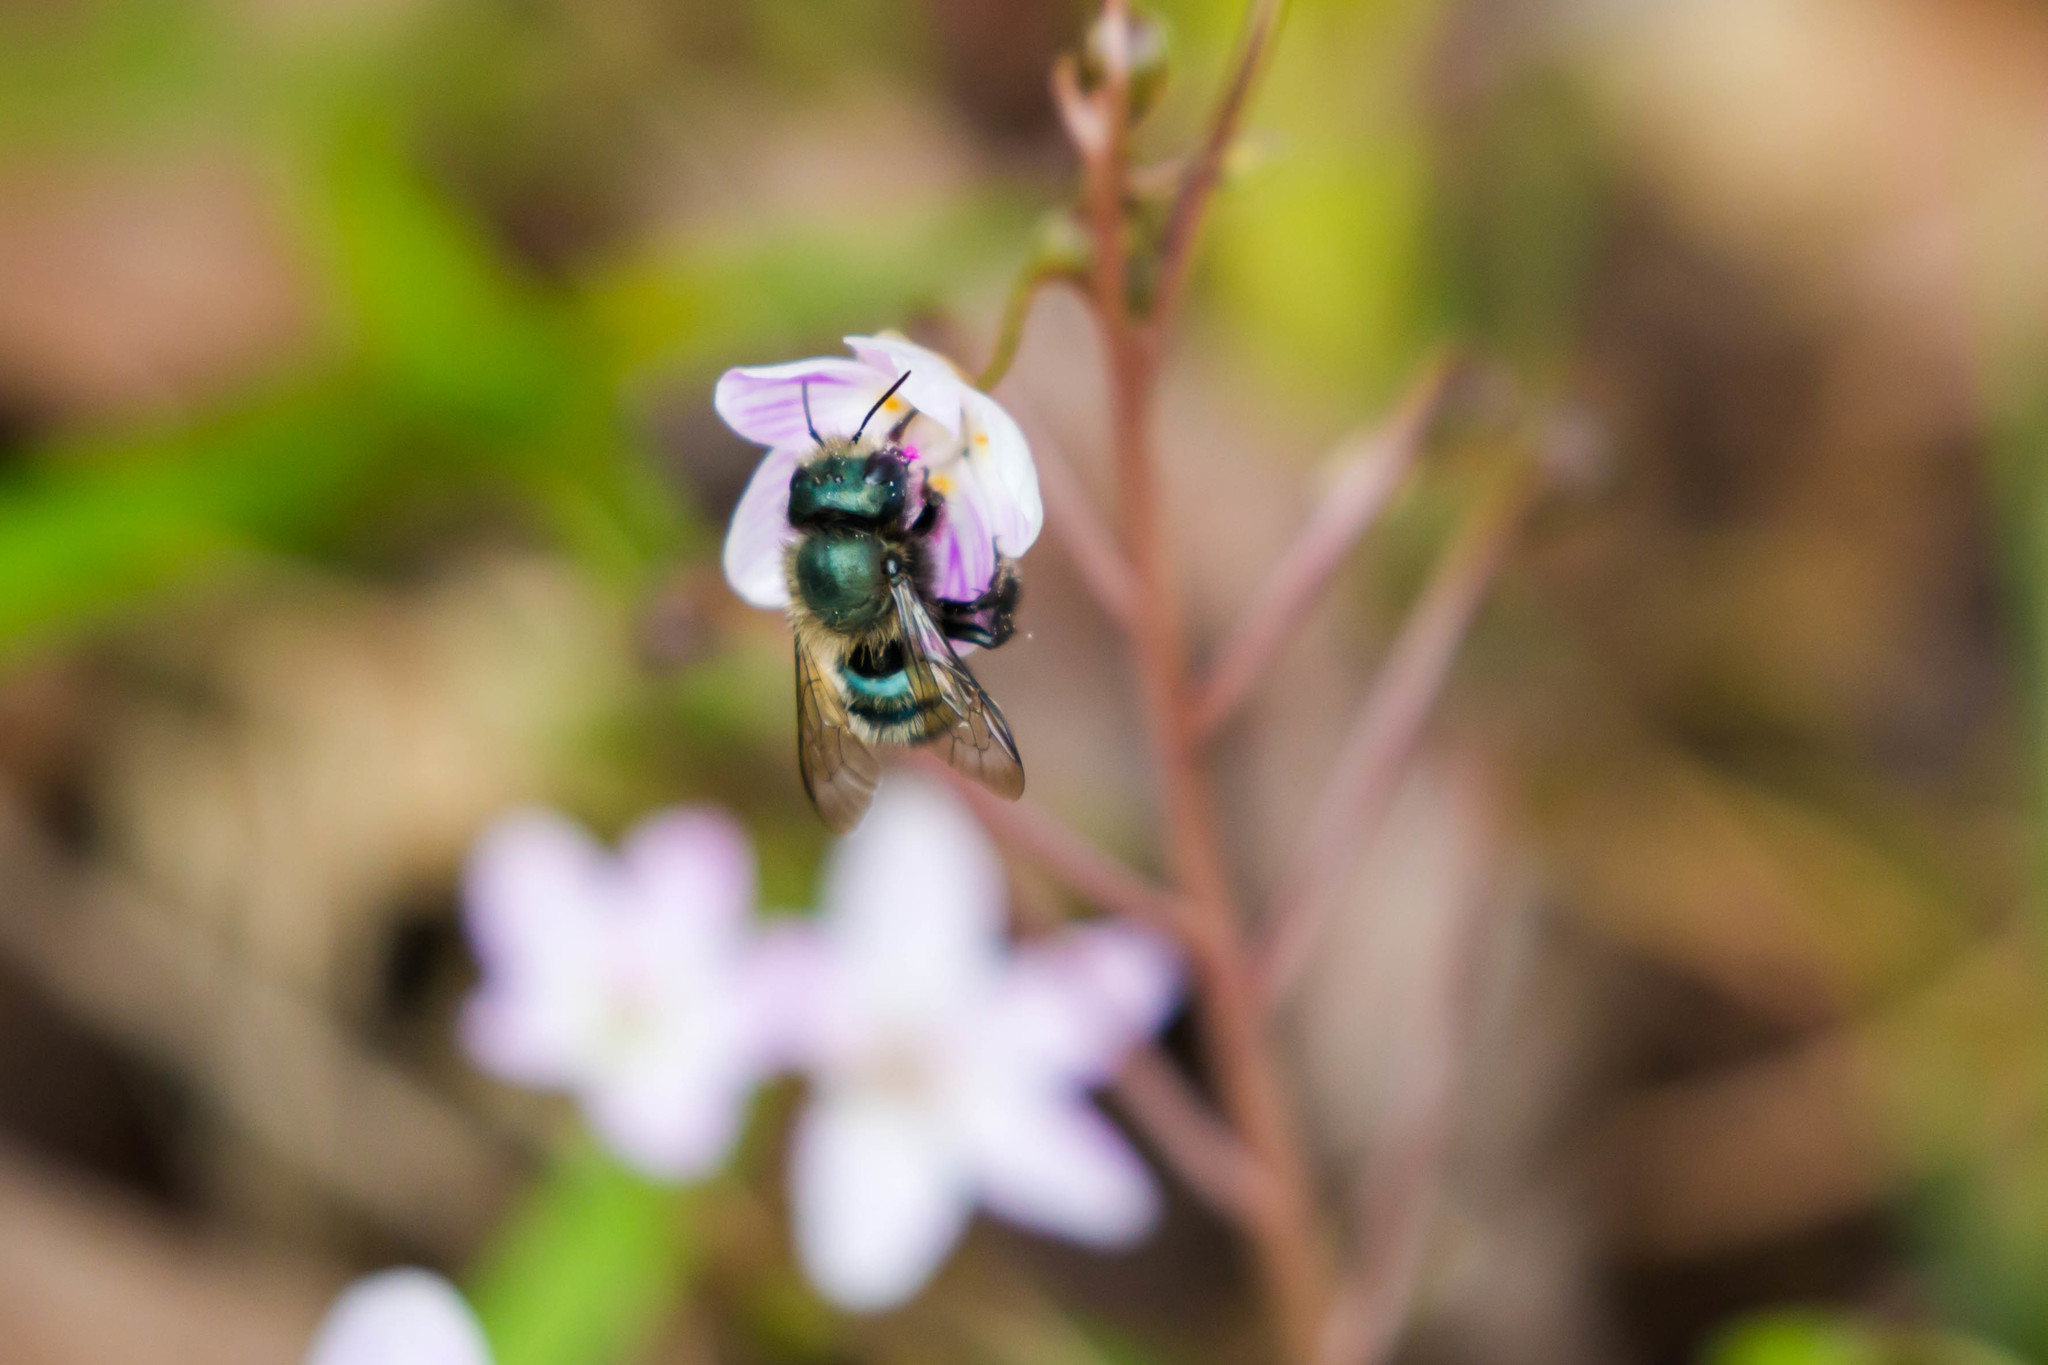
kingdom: Animalia
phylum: Arthropoda
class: Insecta
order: Hymenoptera
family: Megachilidae
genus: Osmia
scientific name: Osmia lignaria
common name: Blue orchard bee
